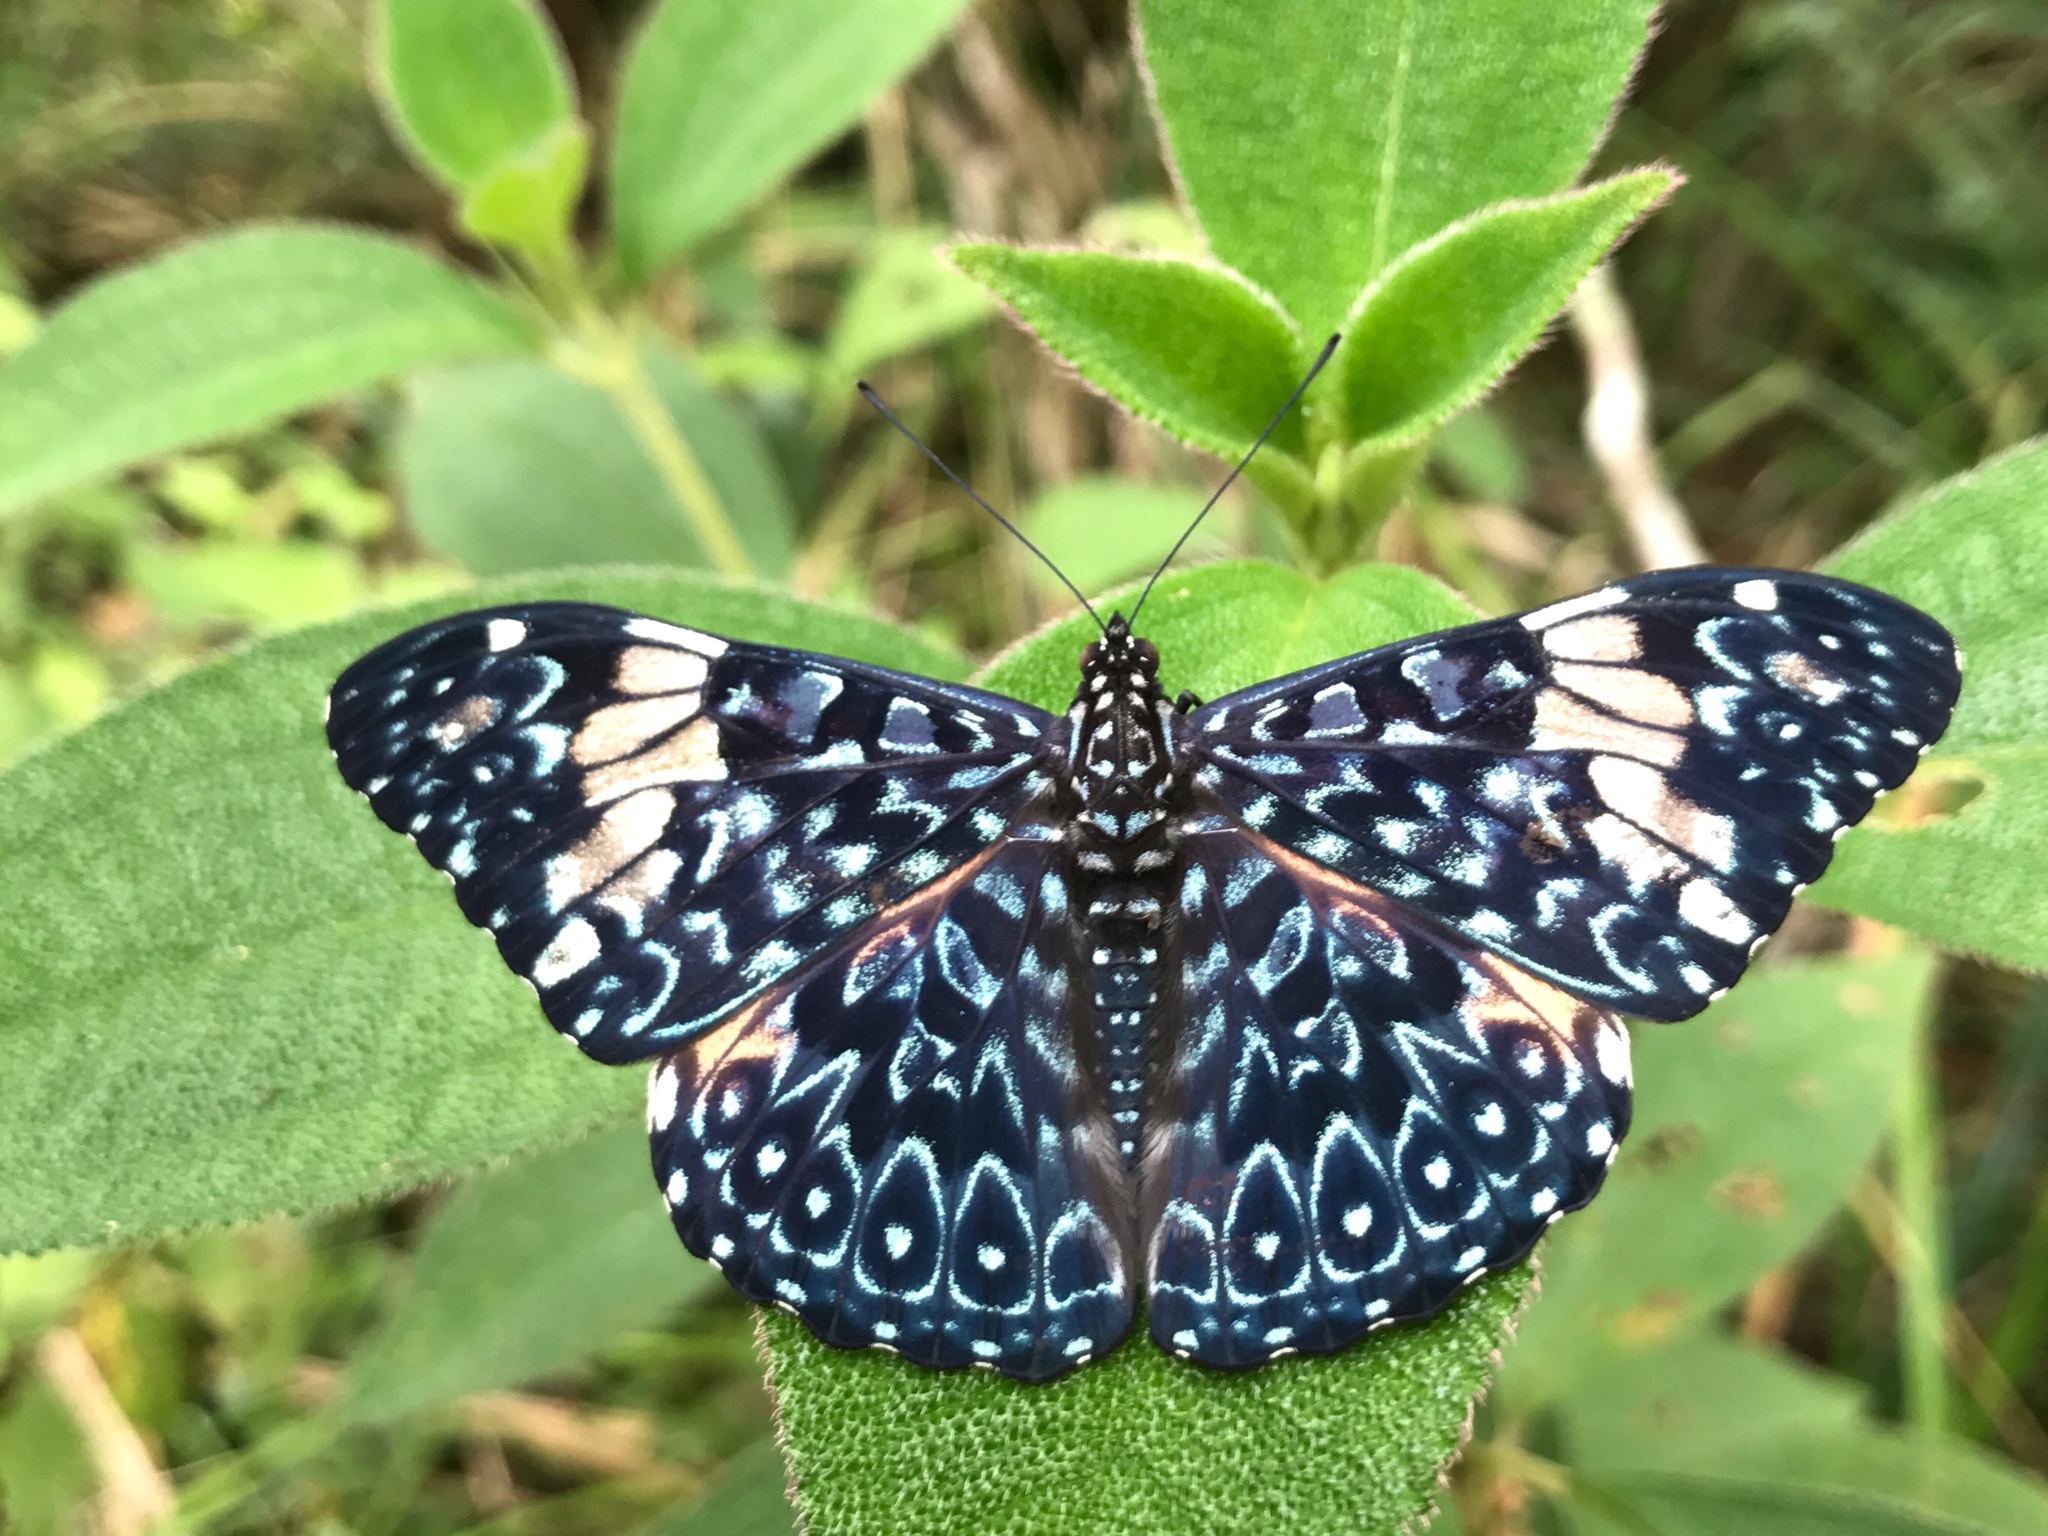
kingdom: Animalia
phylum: Arthropoda
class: Insecta
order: Lepidoptera
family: Nymphalidae
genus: Hamadryas
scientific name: Hamadryas amphinome
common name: Red cracker
